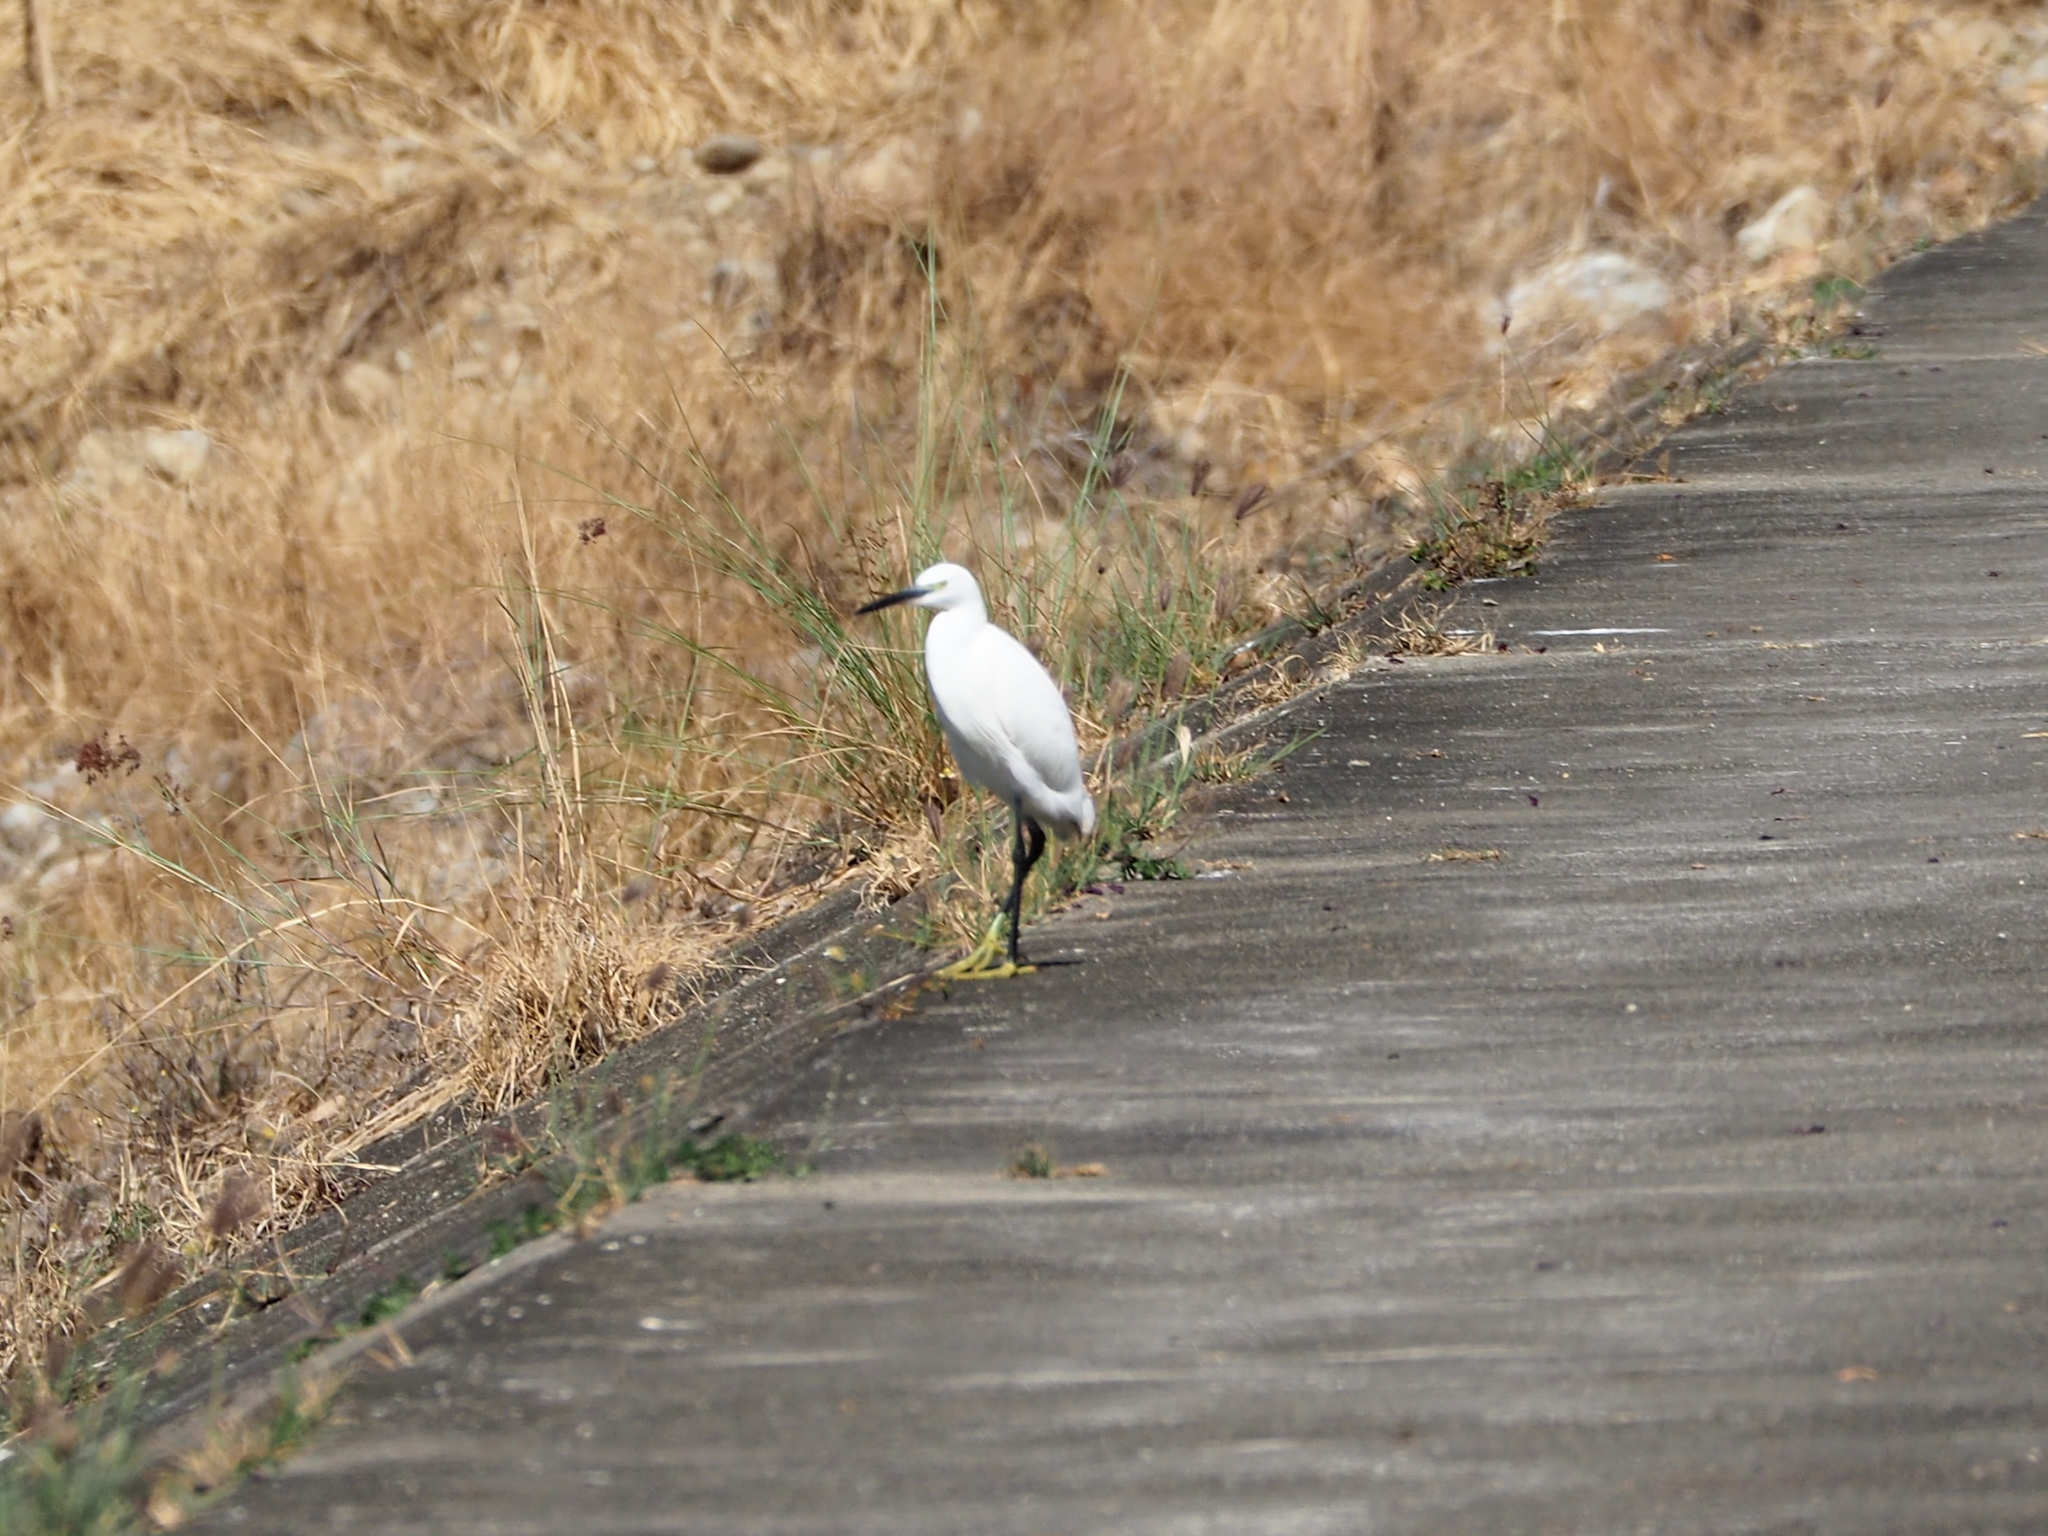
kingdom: Animalia
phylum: Chordata
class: Aves
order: Pelecaniformes
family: Ardeidae
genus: Egretta
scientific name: Egretta garzetta
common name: Little egret
